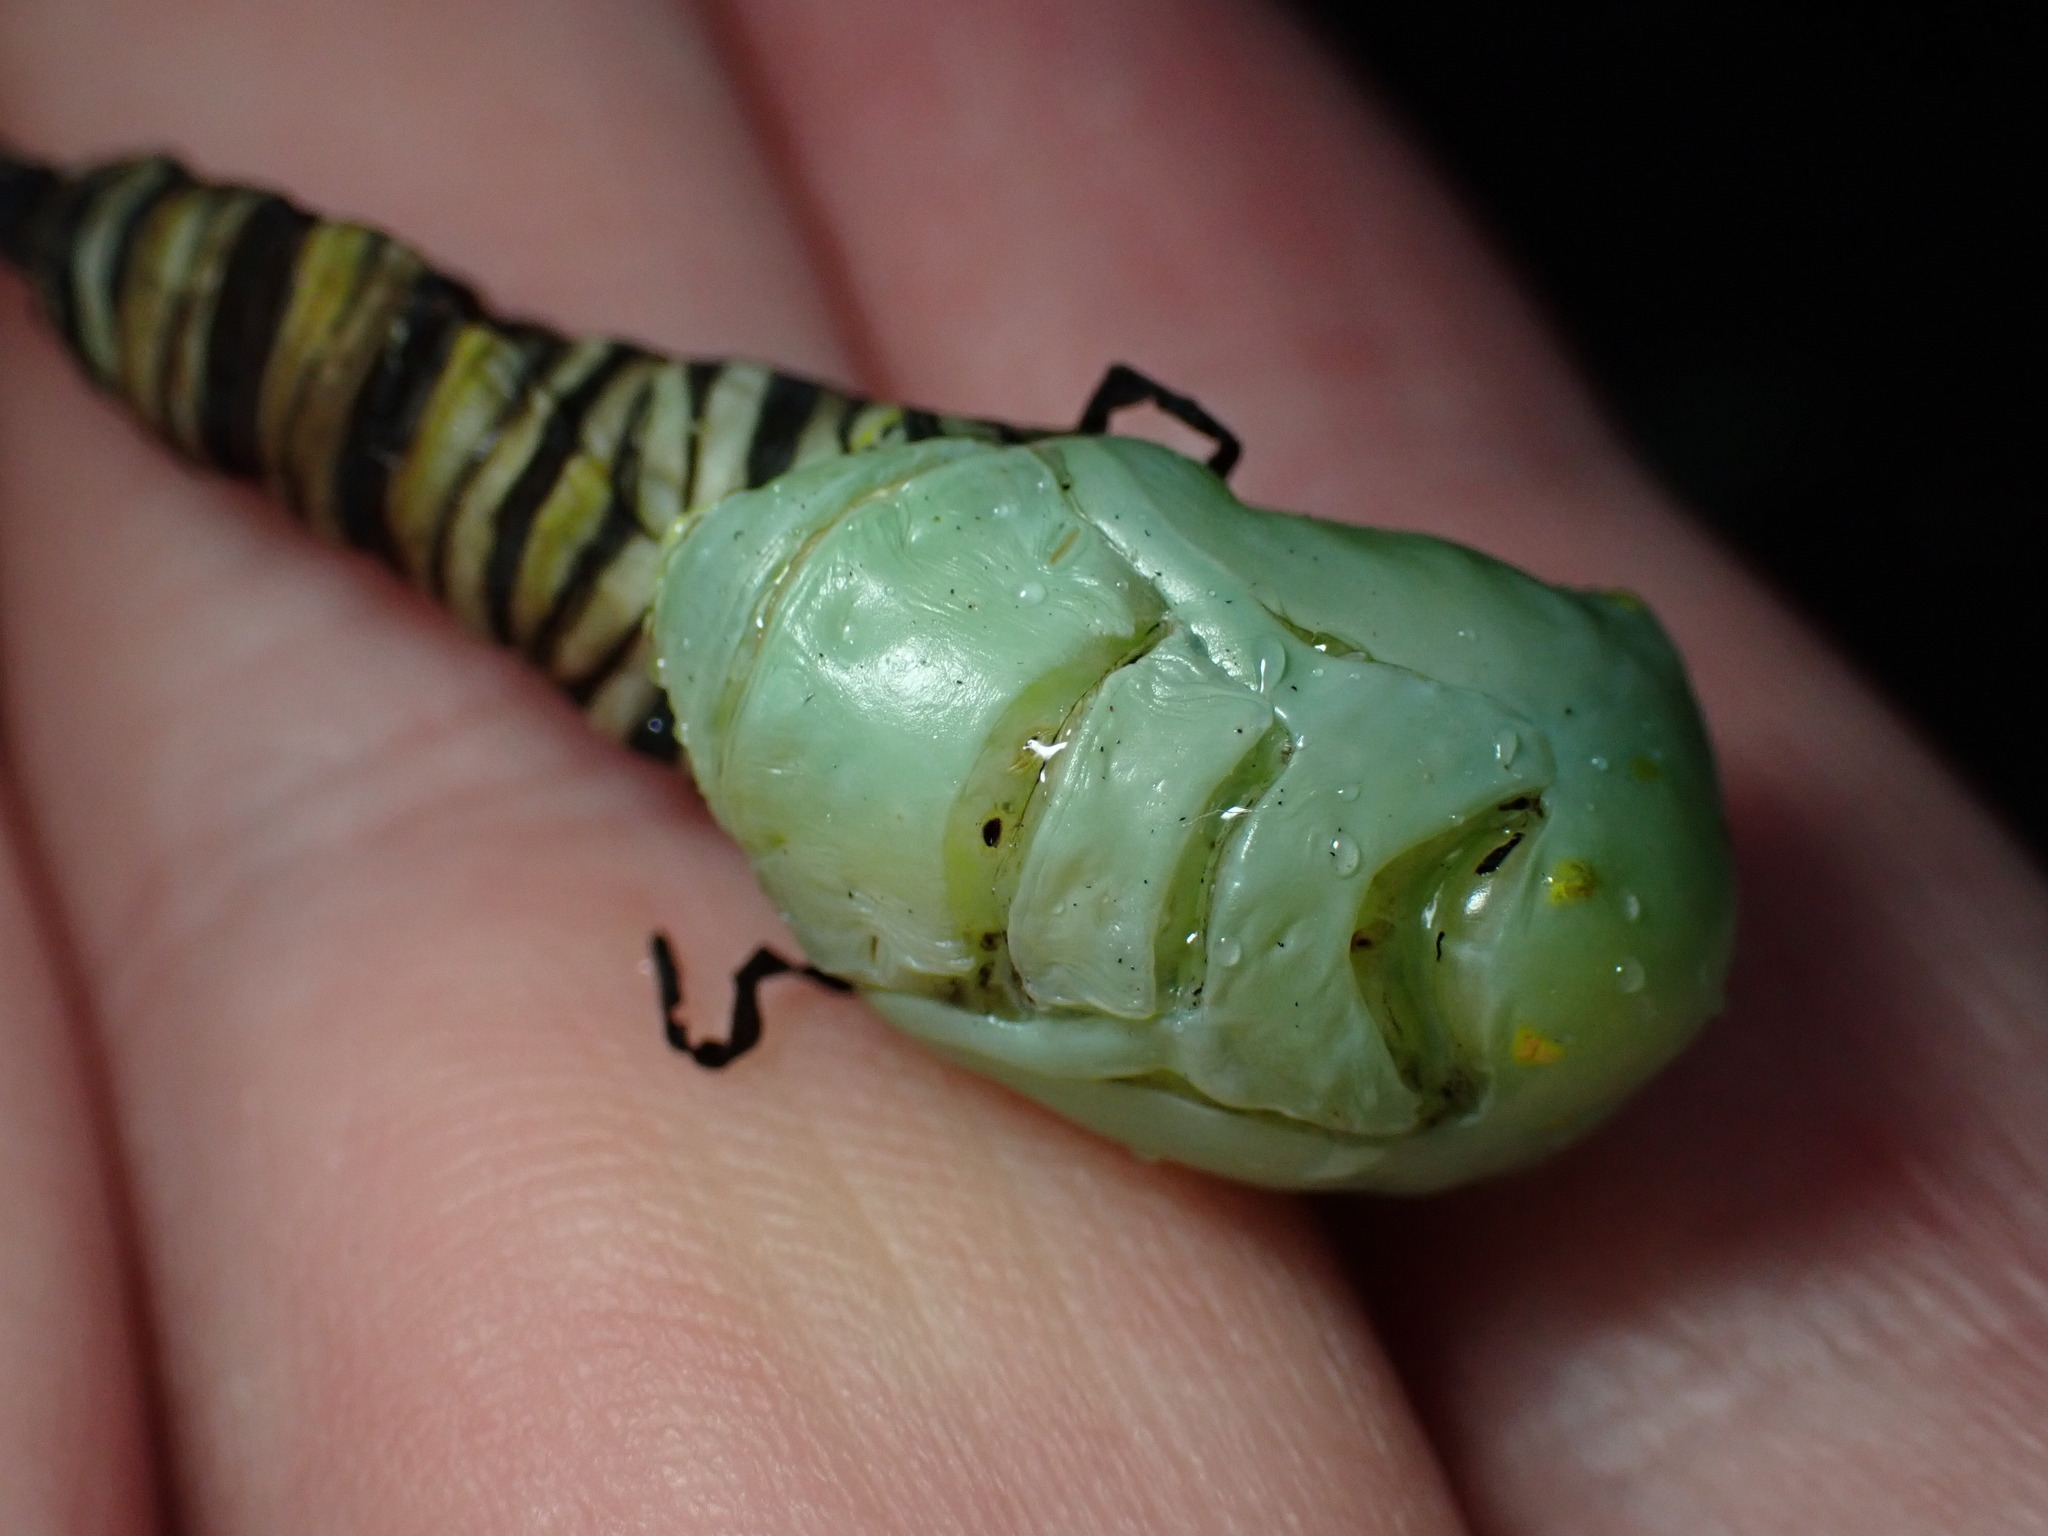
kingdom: Animalia
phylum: Arthropoda
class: Insecta
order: Lepidoptera
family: Nymphalidae
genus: Danaus
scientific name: Danaus plexippus
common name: Monarch
